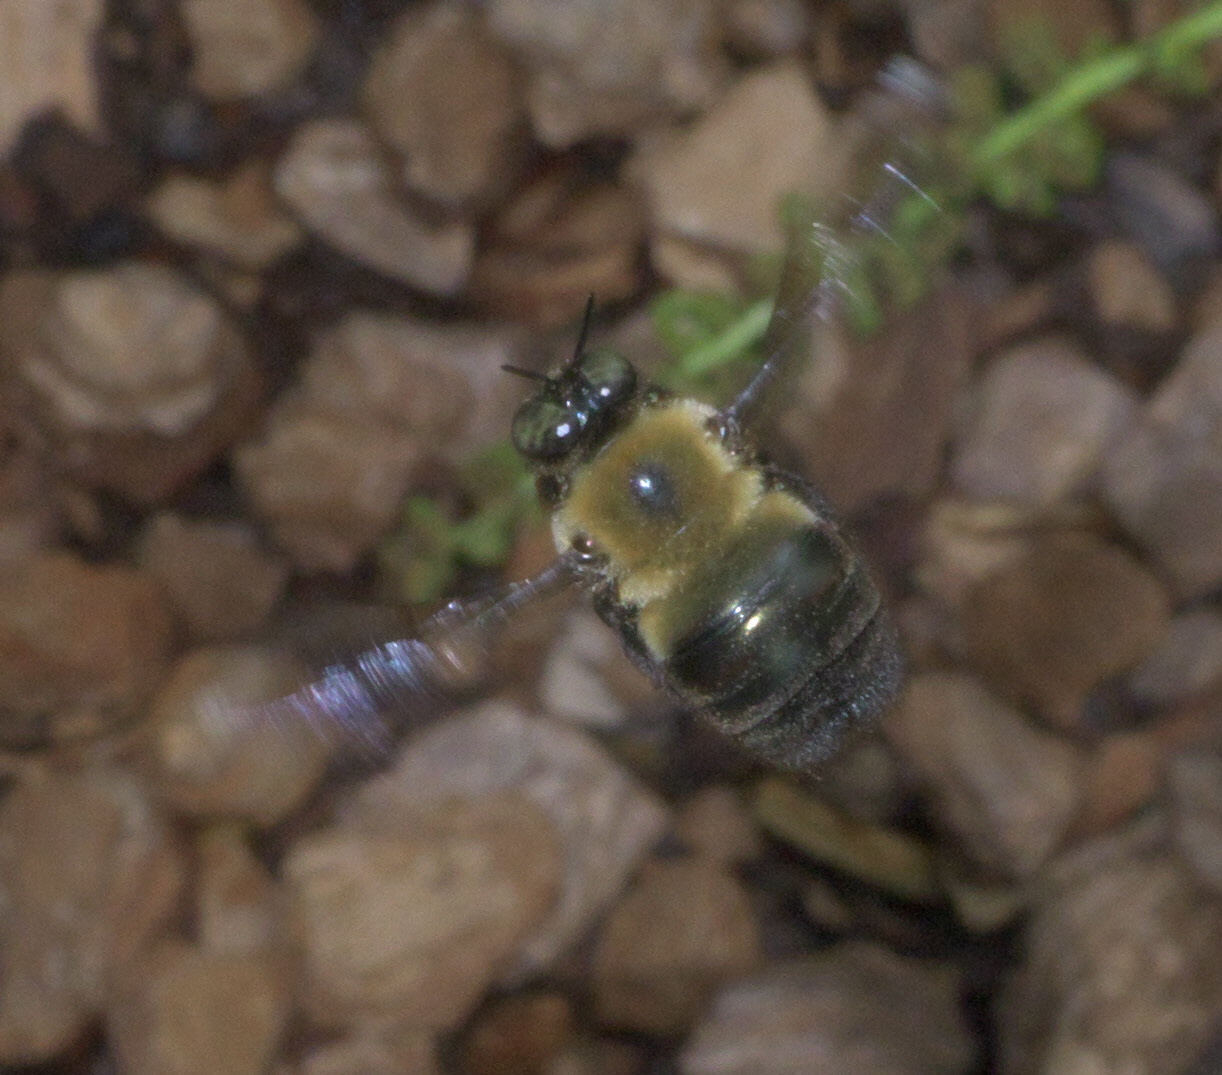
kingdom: Animalia
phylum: Arthropoda
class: Insecta
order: Hymenoptera
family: Apidae
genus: Xylocopa
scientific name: Xylocopa virginica
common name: Carpenter bee
